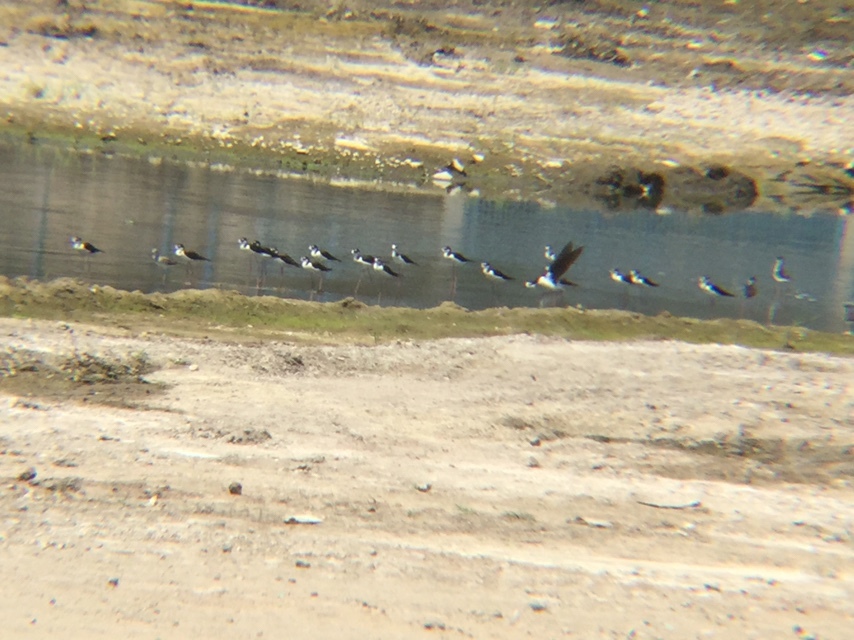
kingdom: Animalia
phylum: Chordata
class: Aves
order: Charadriiformes
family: Recurvirostridae
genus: Himantopus
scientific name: Himantopus mexicanus
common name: Black-necked stilt
